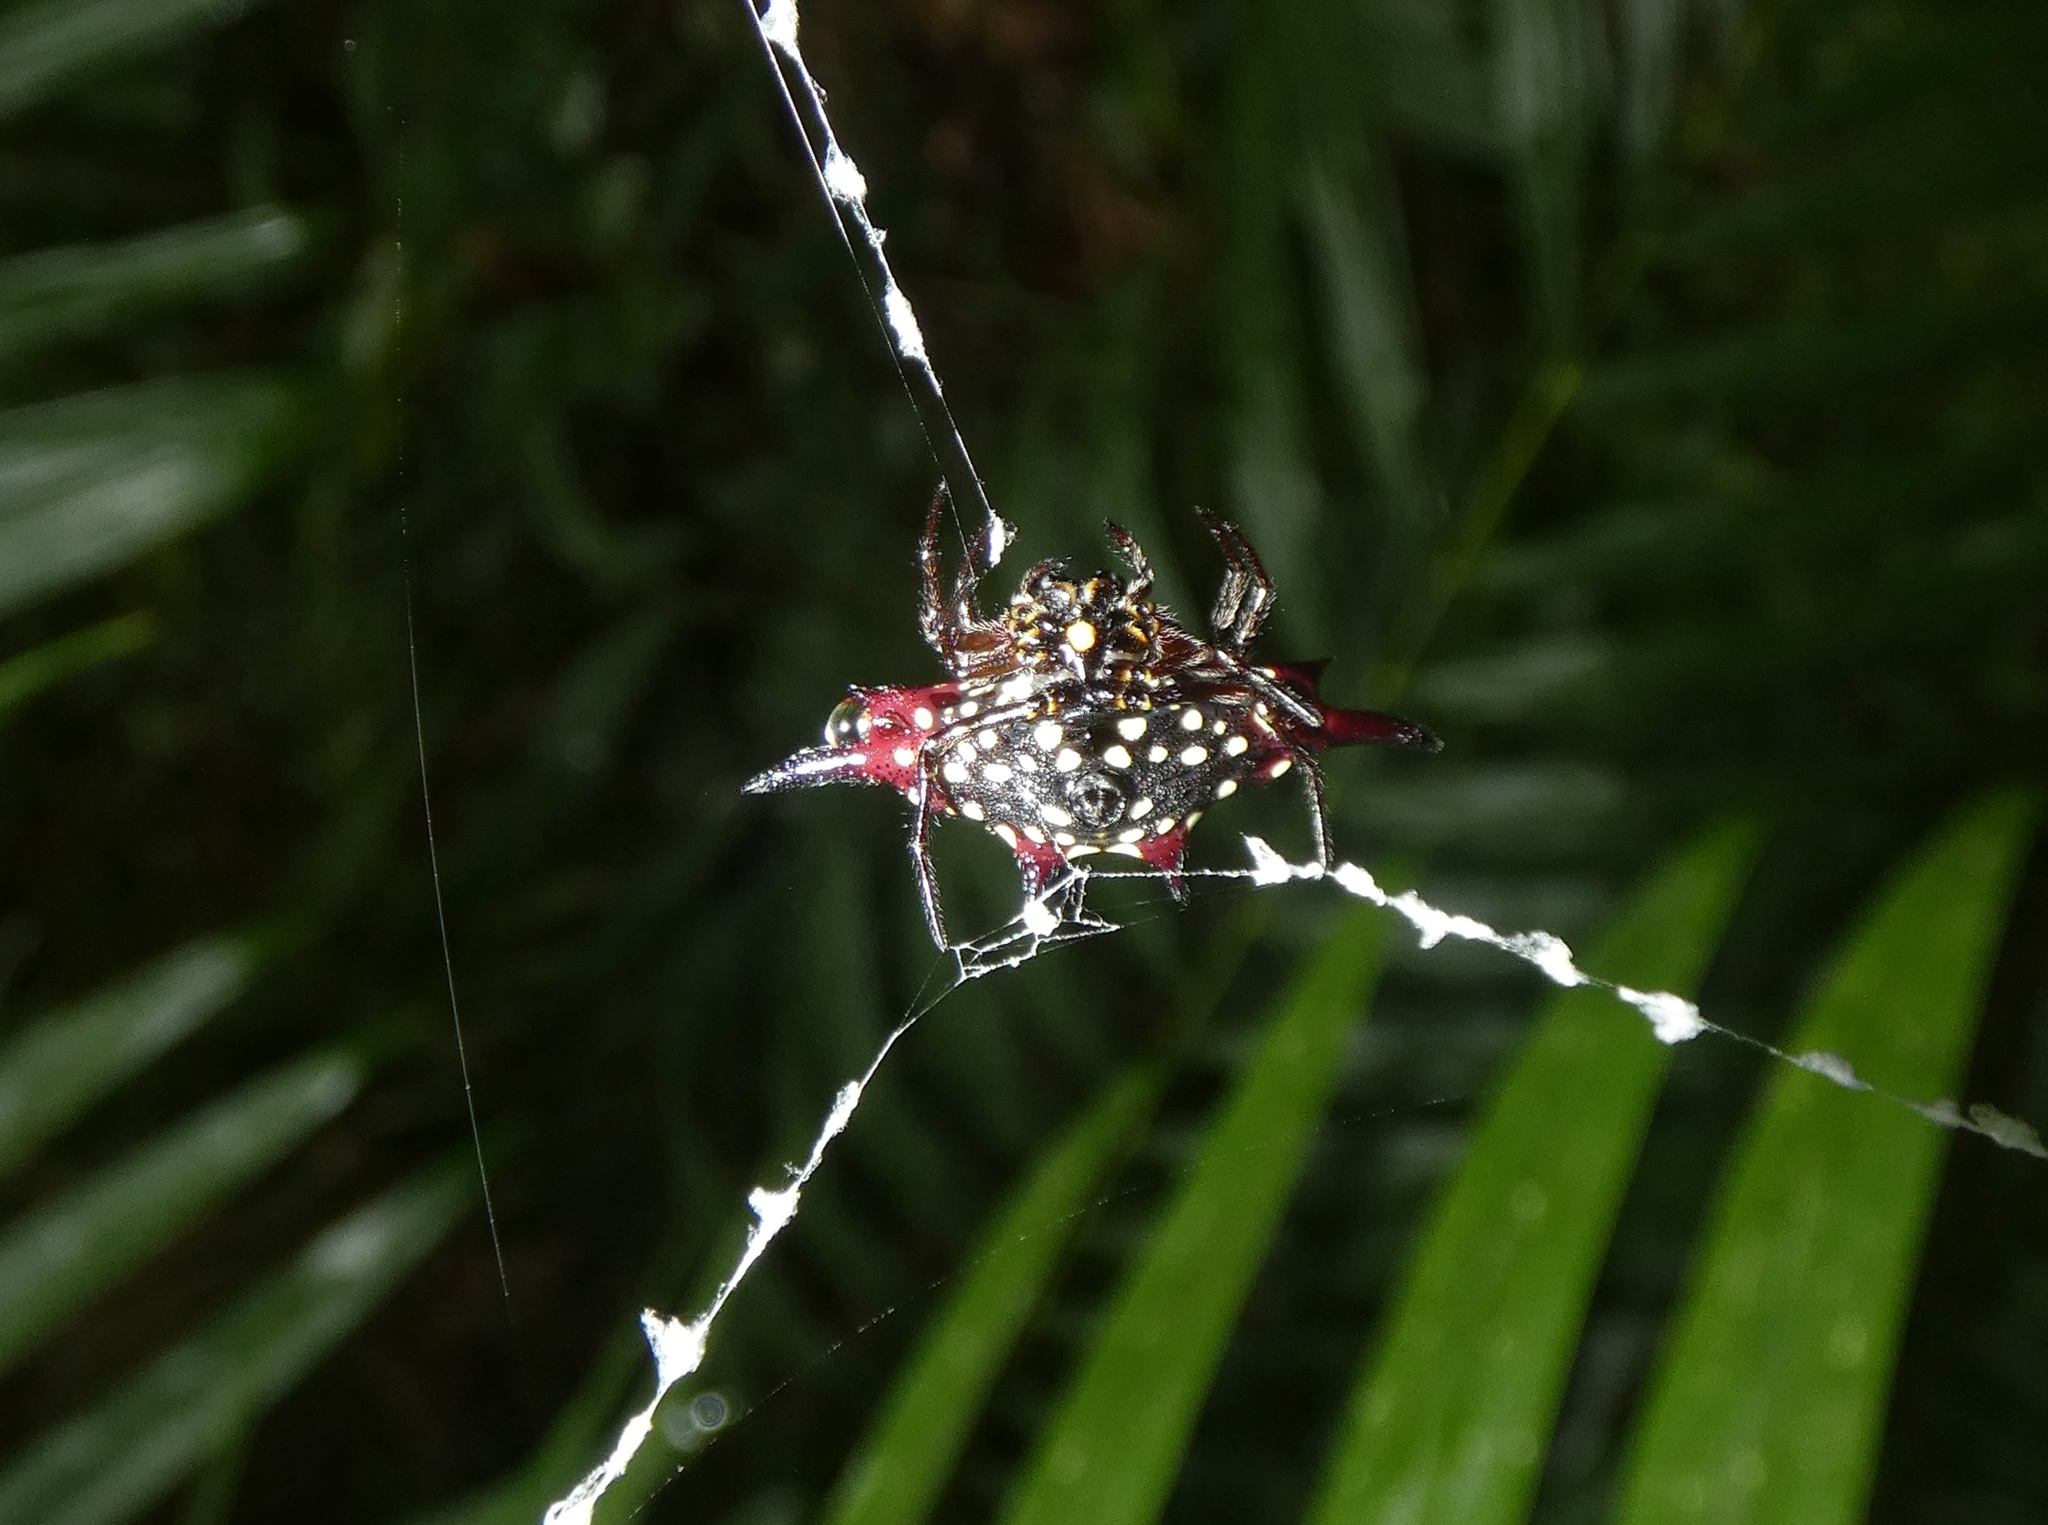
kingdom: Animalia
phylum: Arthropoda
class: Arachnida
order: Araneae
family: Araneidae
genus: Gasteracantha
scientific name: Gasteracantha fornicata
